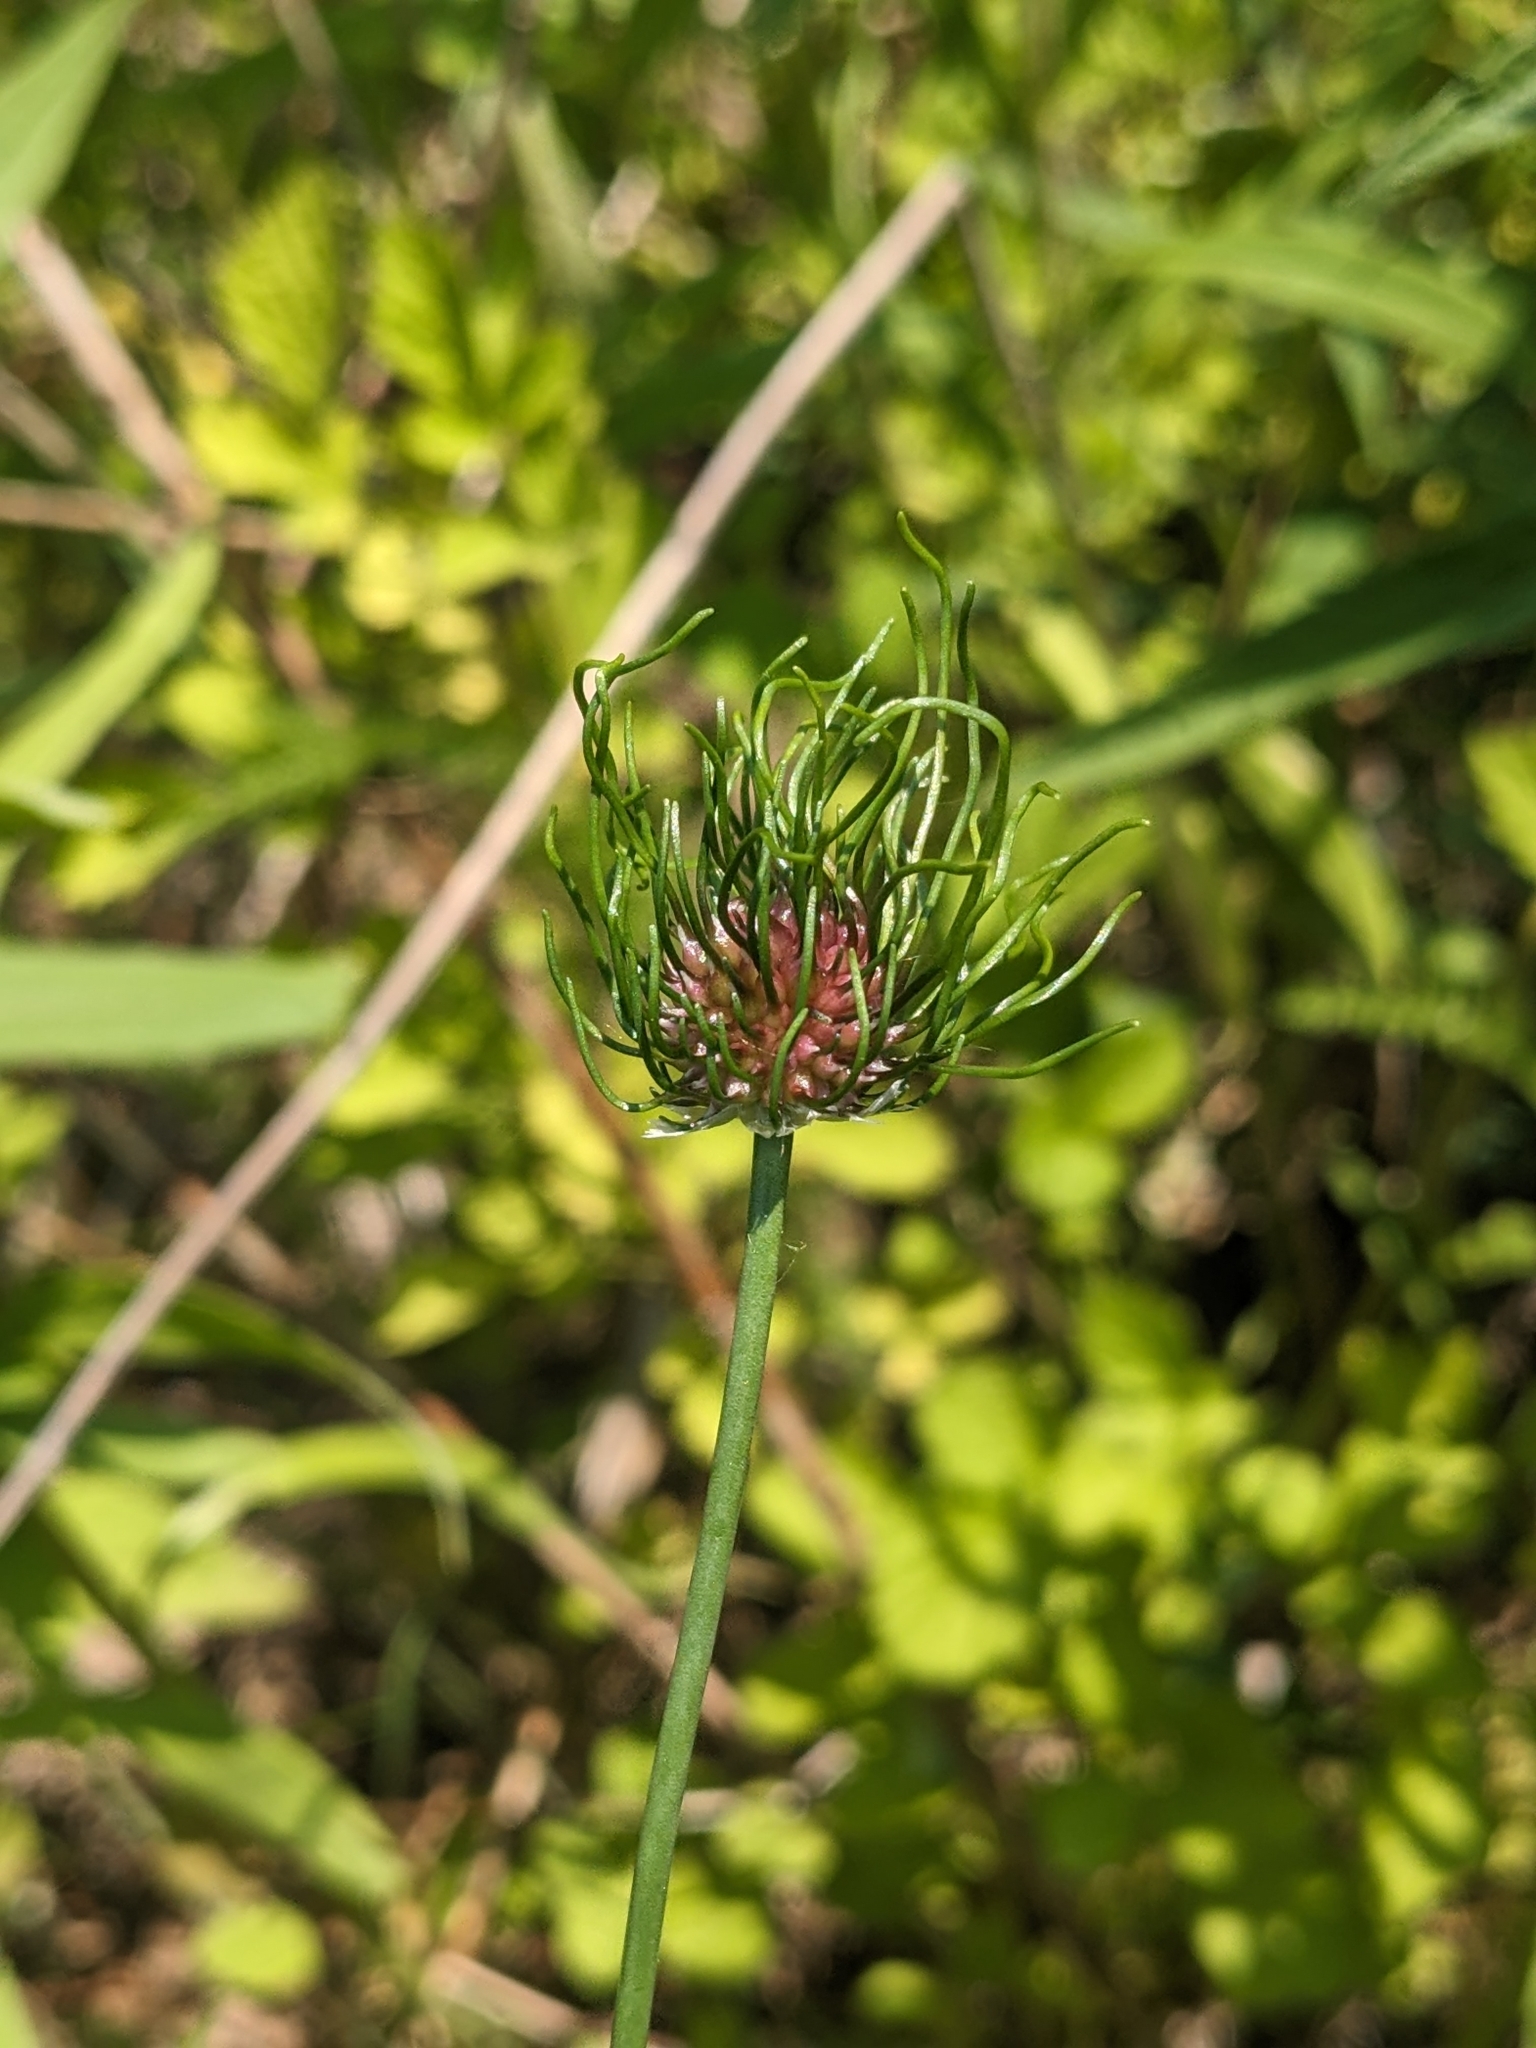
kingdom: Plantae
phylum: Tracheophyta
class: Liliopsida
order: Asparagales
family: Amaryllidaceae
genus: Allium
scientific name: Allium vineale
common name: Crow garlic
